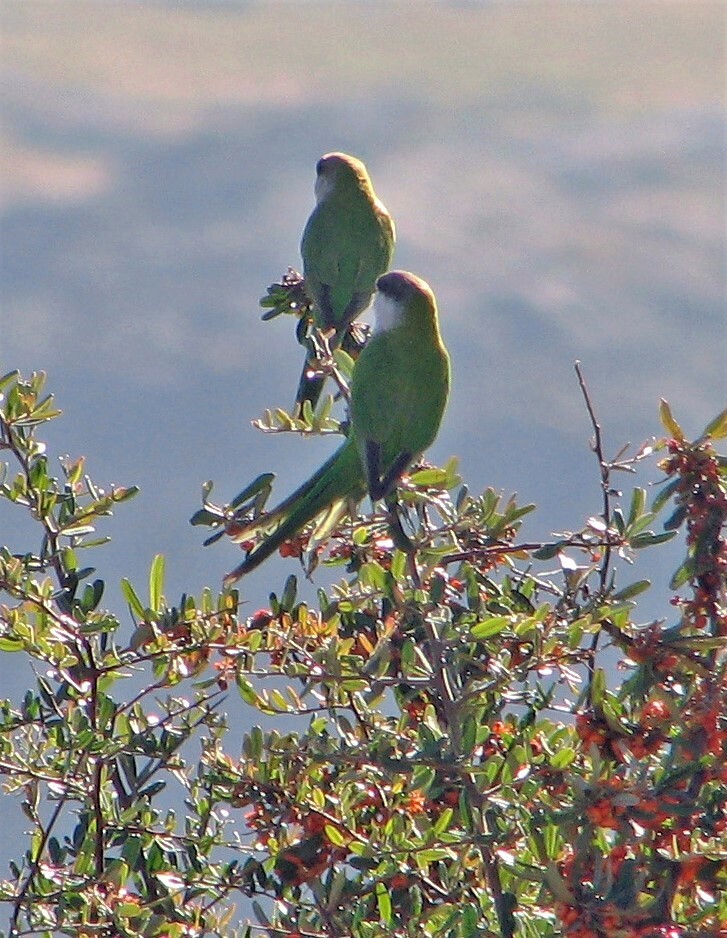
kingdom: Animalia
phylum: Chordata
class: Aves
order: Psittaciformes
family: Psittacidae
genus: Psilopsiagon
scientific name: Psilopsiagon aymara
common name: Grey-hooded parakeet
